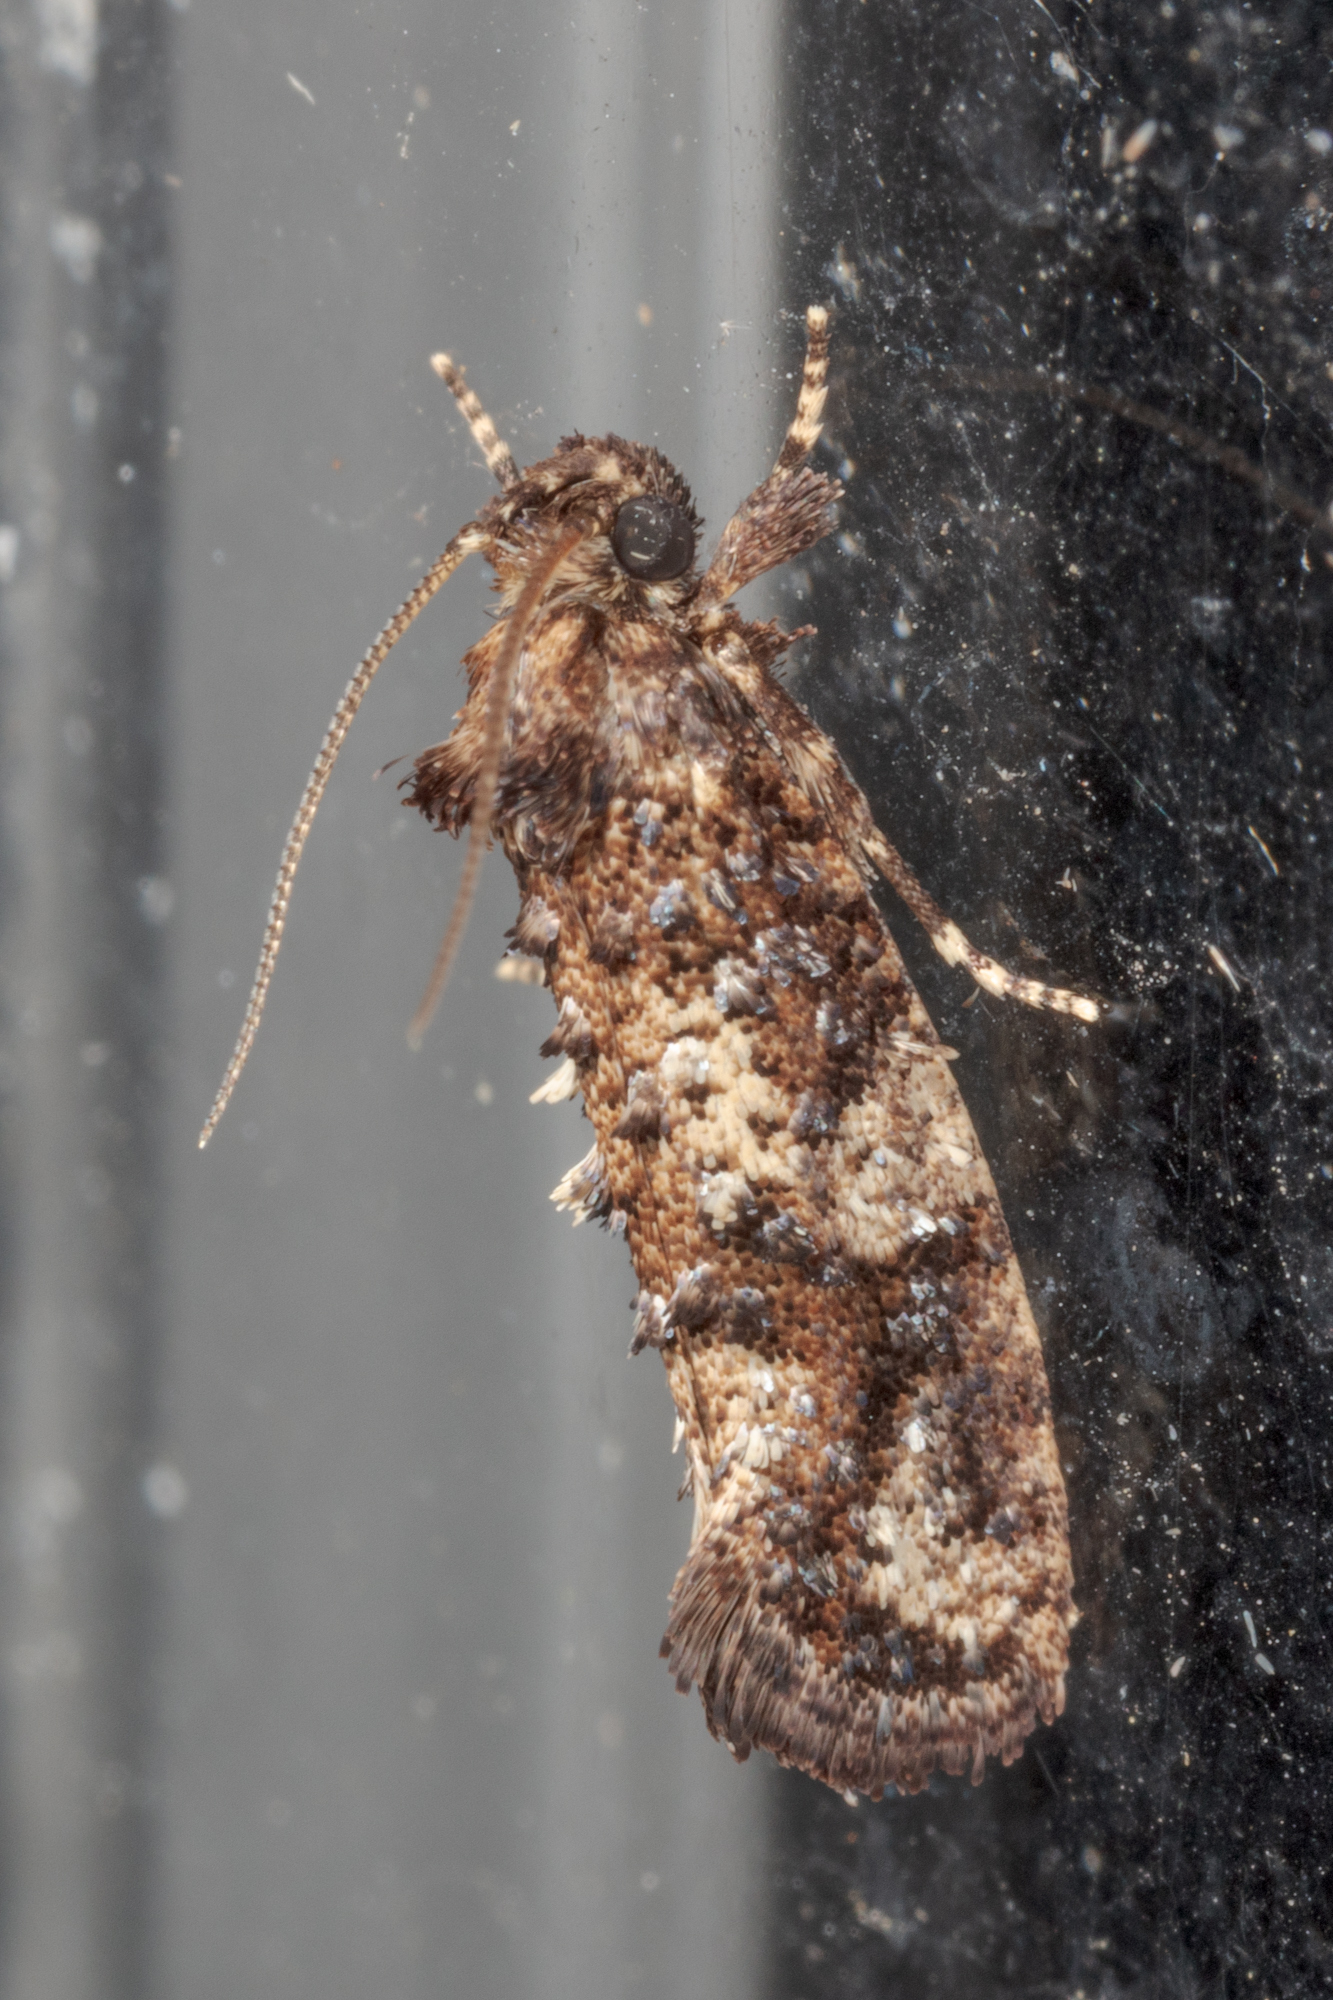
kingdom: Animalia
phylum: Arthropoda
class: Insecta
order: Lepidoptera
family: Tineidae
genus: Acrolophus
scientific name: Acrolophus cressoni
